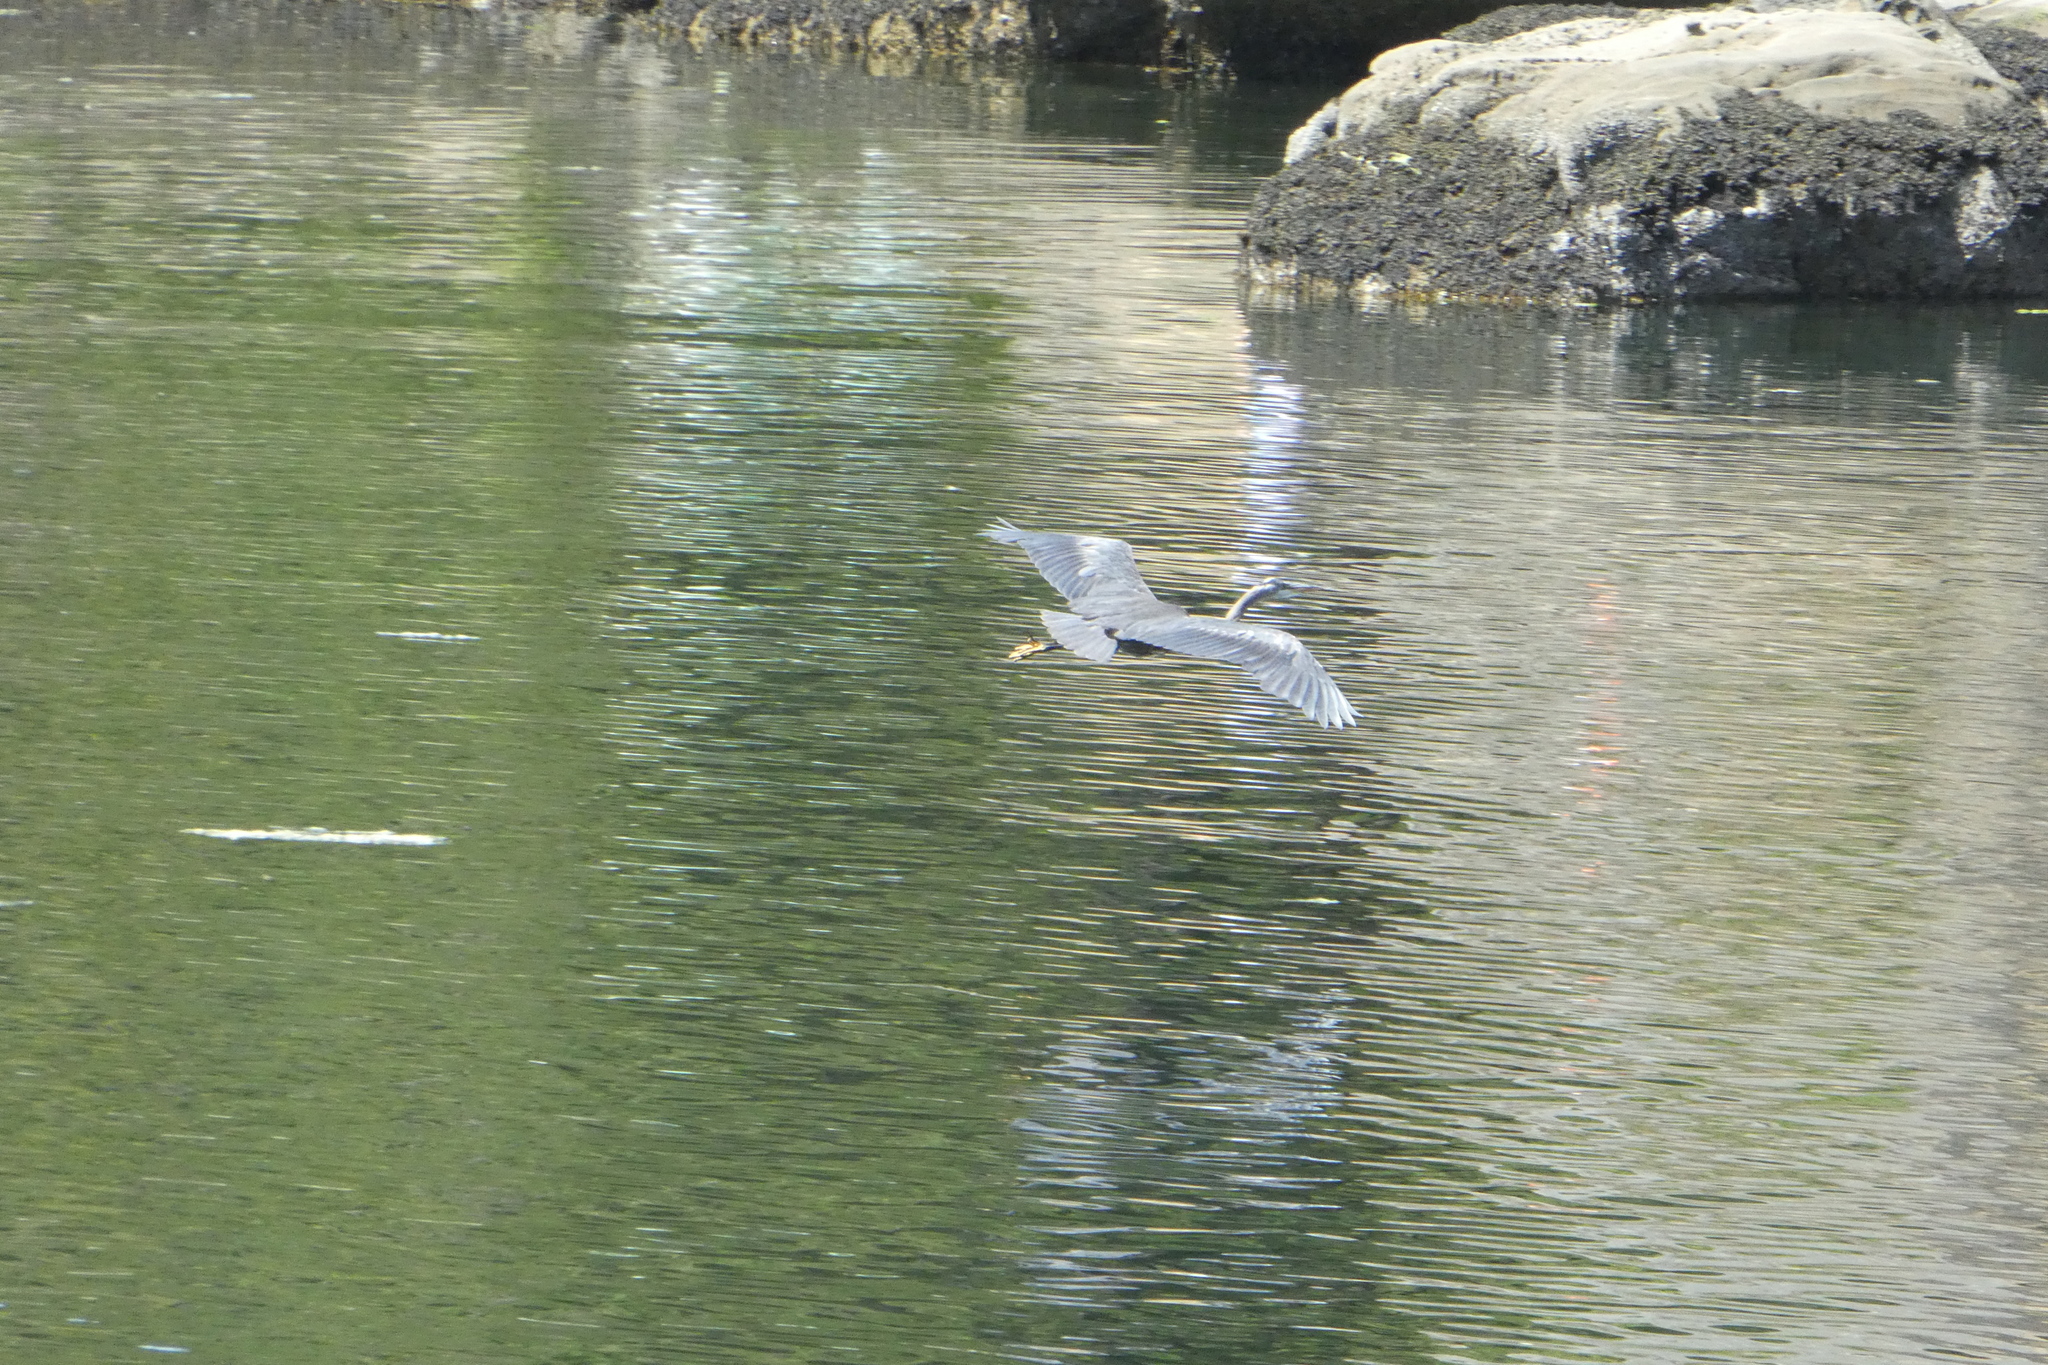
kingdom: Animalia
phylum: Chordata
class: Aves
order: Pelecaniformes
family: Ardeidae
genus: Ardea
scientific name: Ardea herodias
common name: Great blue heron
